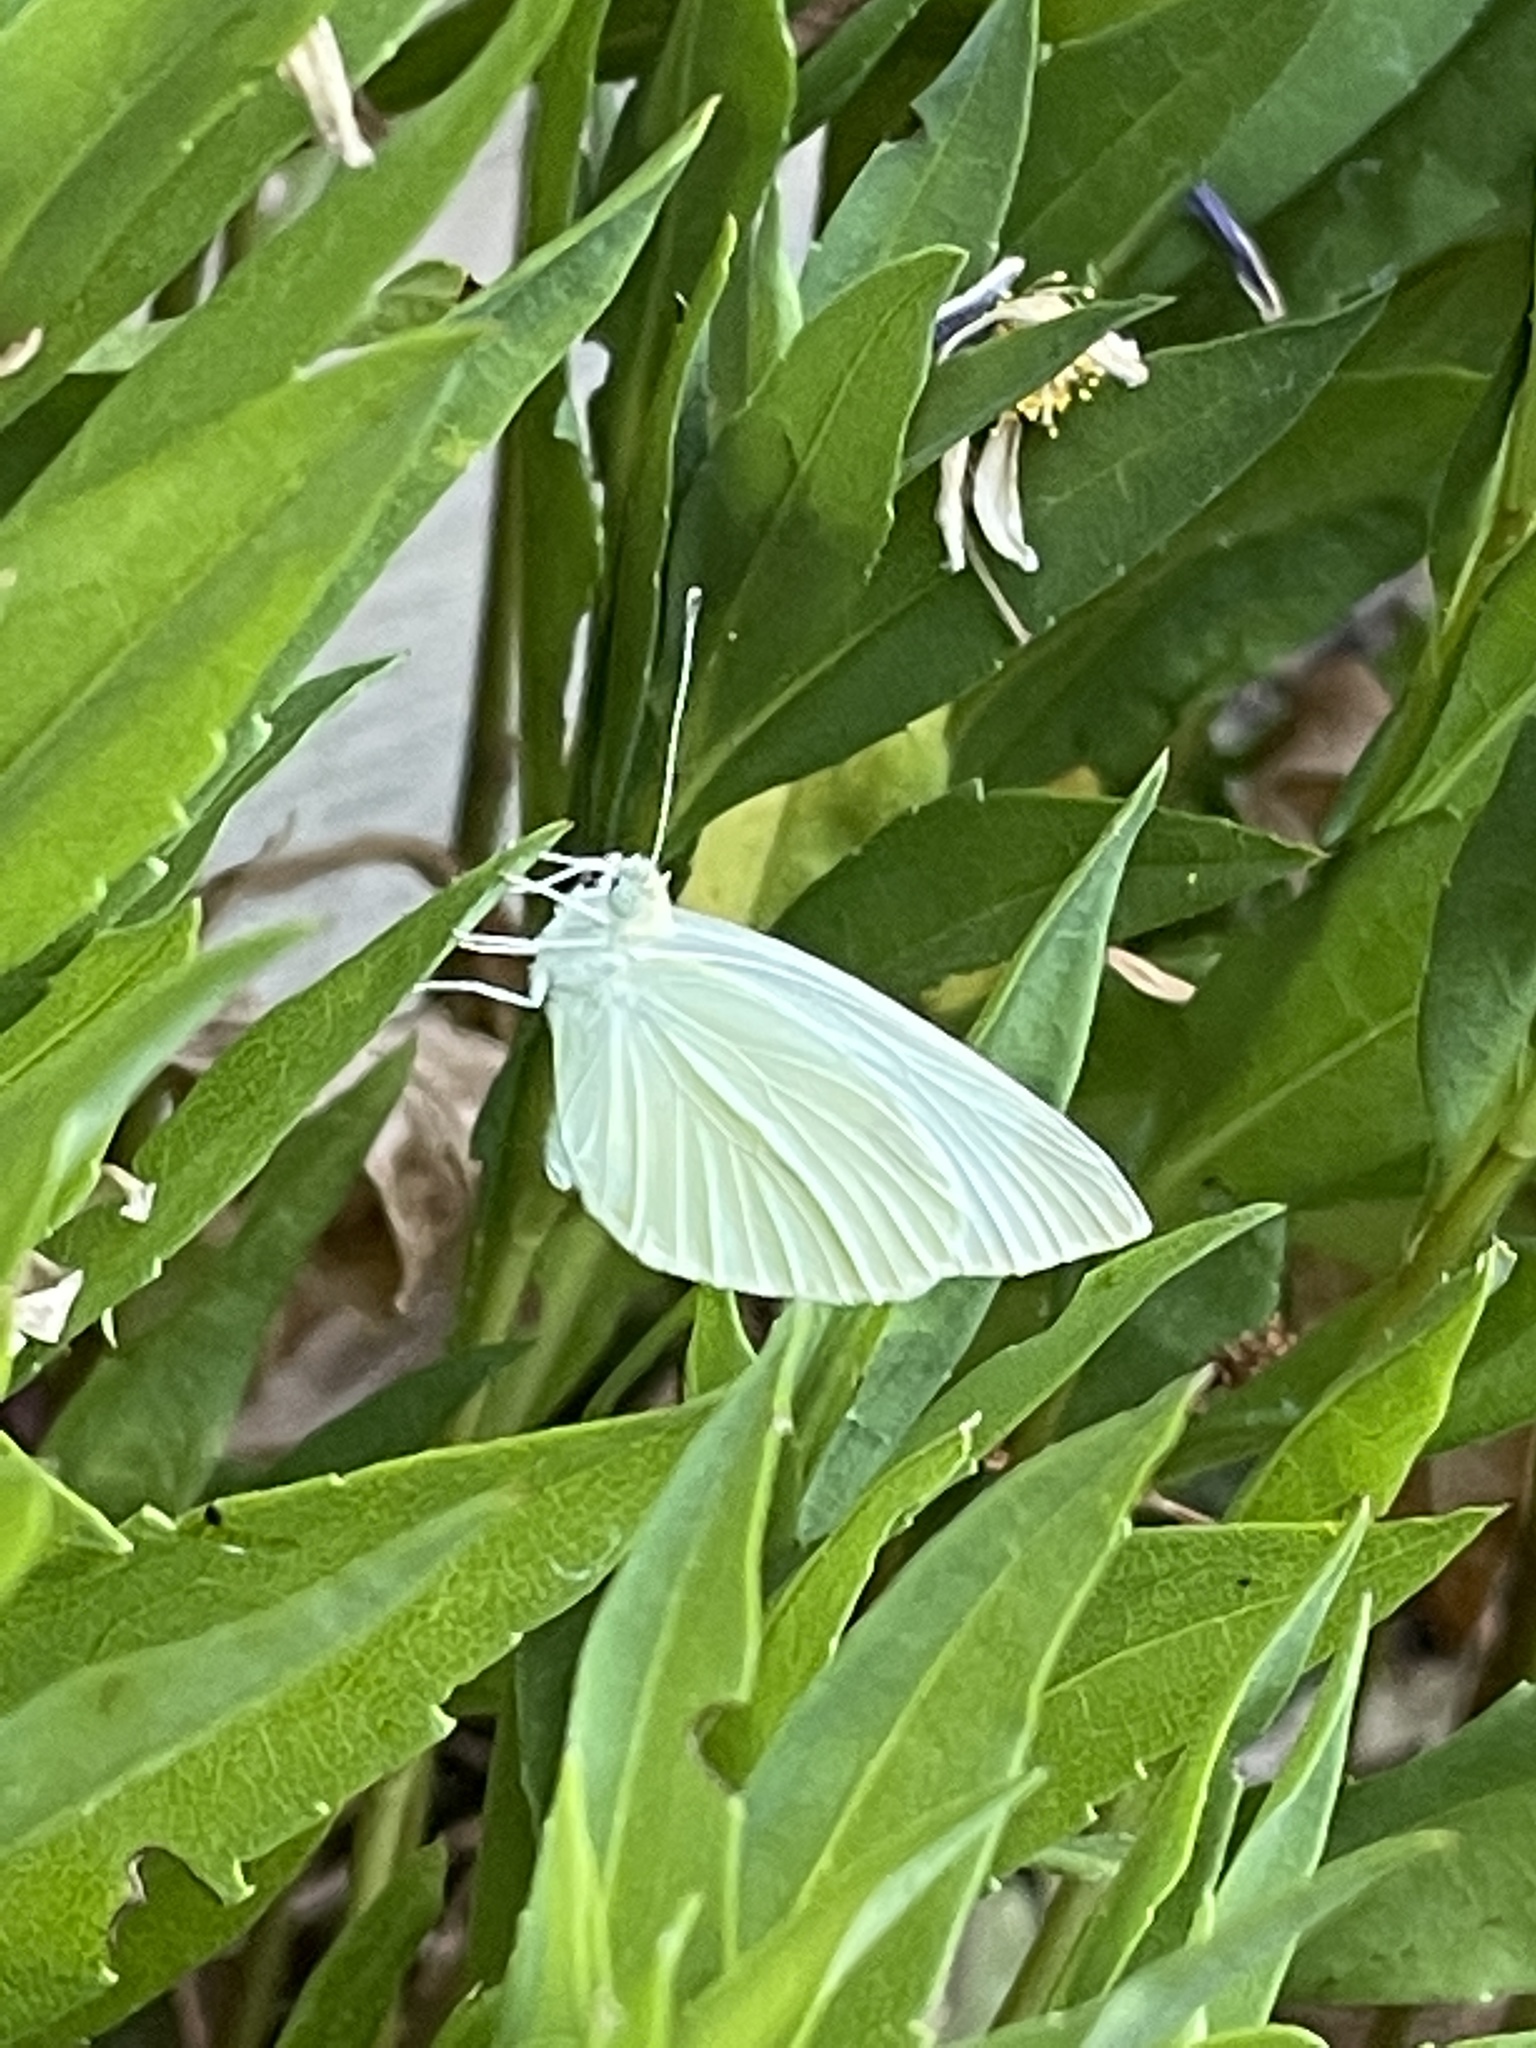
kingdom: Animalia
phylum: Arthropoda
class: Insecta
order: Lepidoptera
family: Pieridae
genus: Pieris
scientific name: Pieris rapae
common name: Small white
